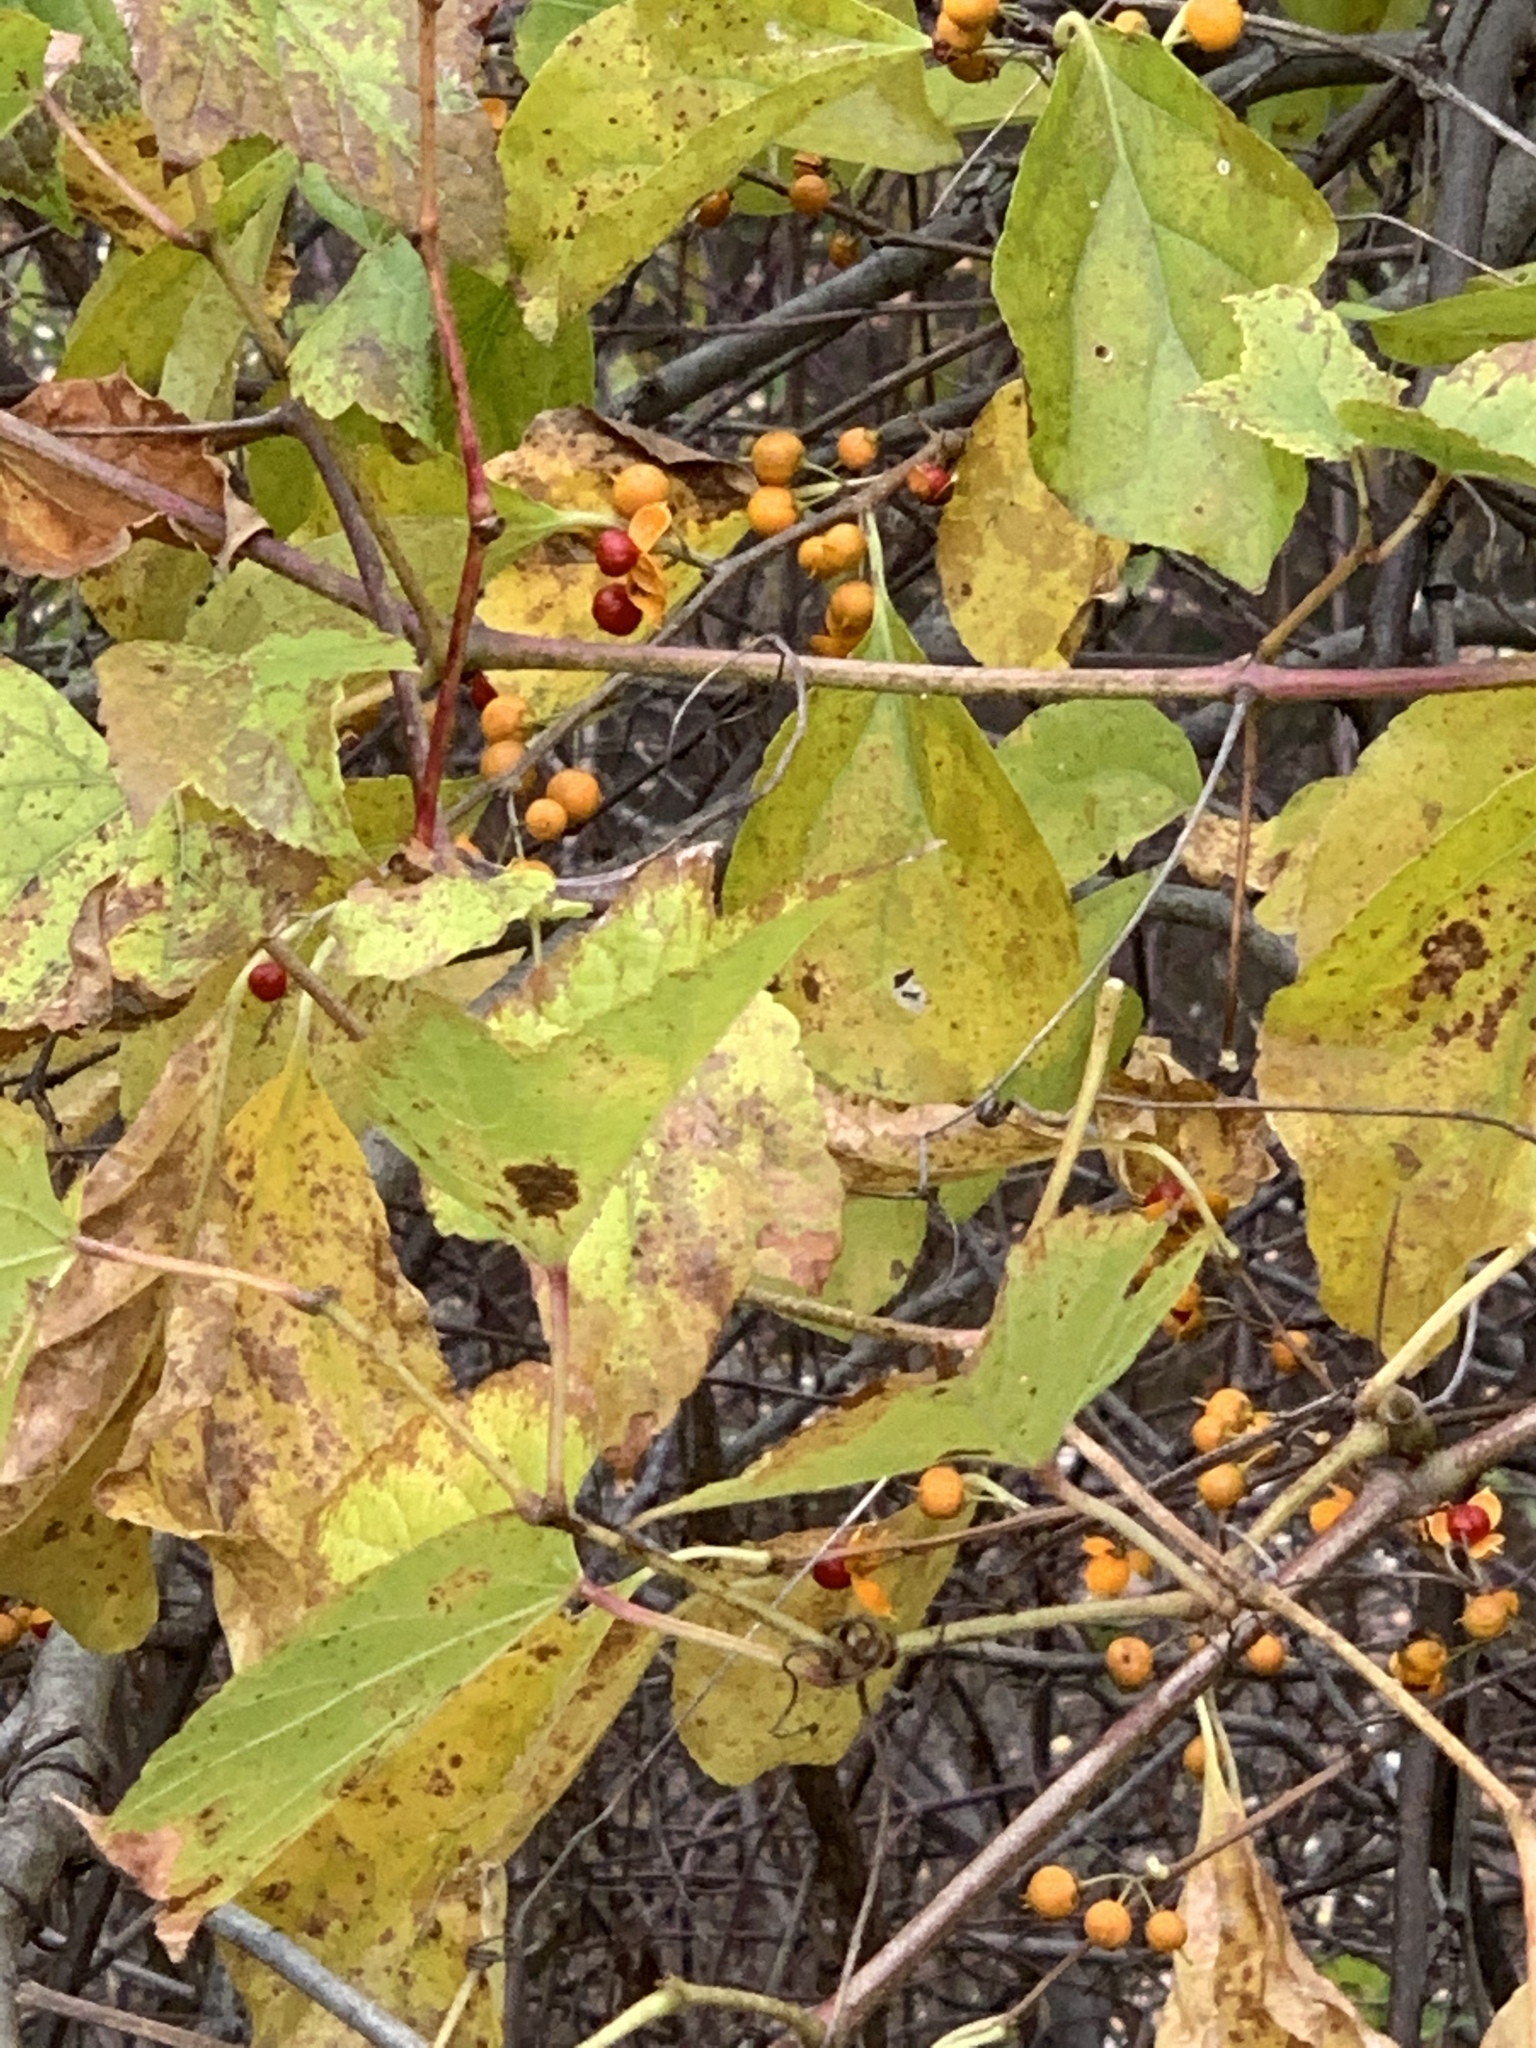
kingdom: Plantae
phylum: Tracheophyta
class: Magnoliopsida
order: Celastrales
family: Celastraceae
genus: Celastrus
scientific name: Celastrus orbiculatus
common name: Oriental bittersweet
